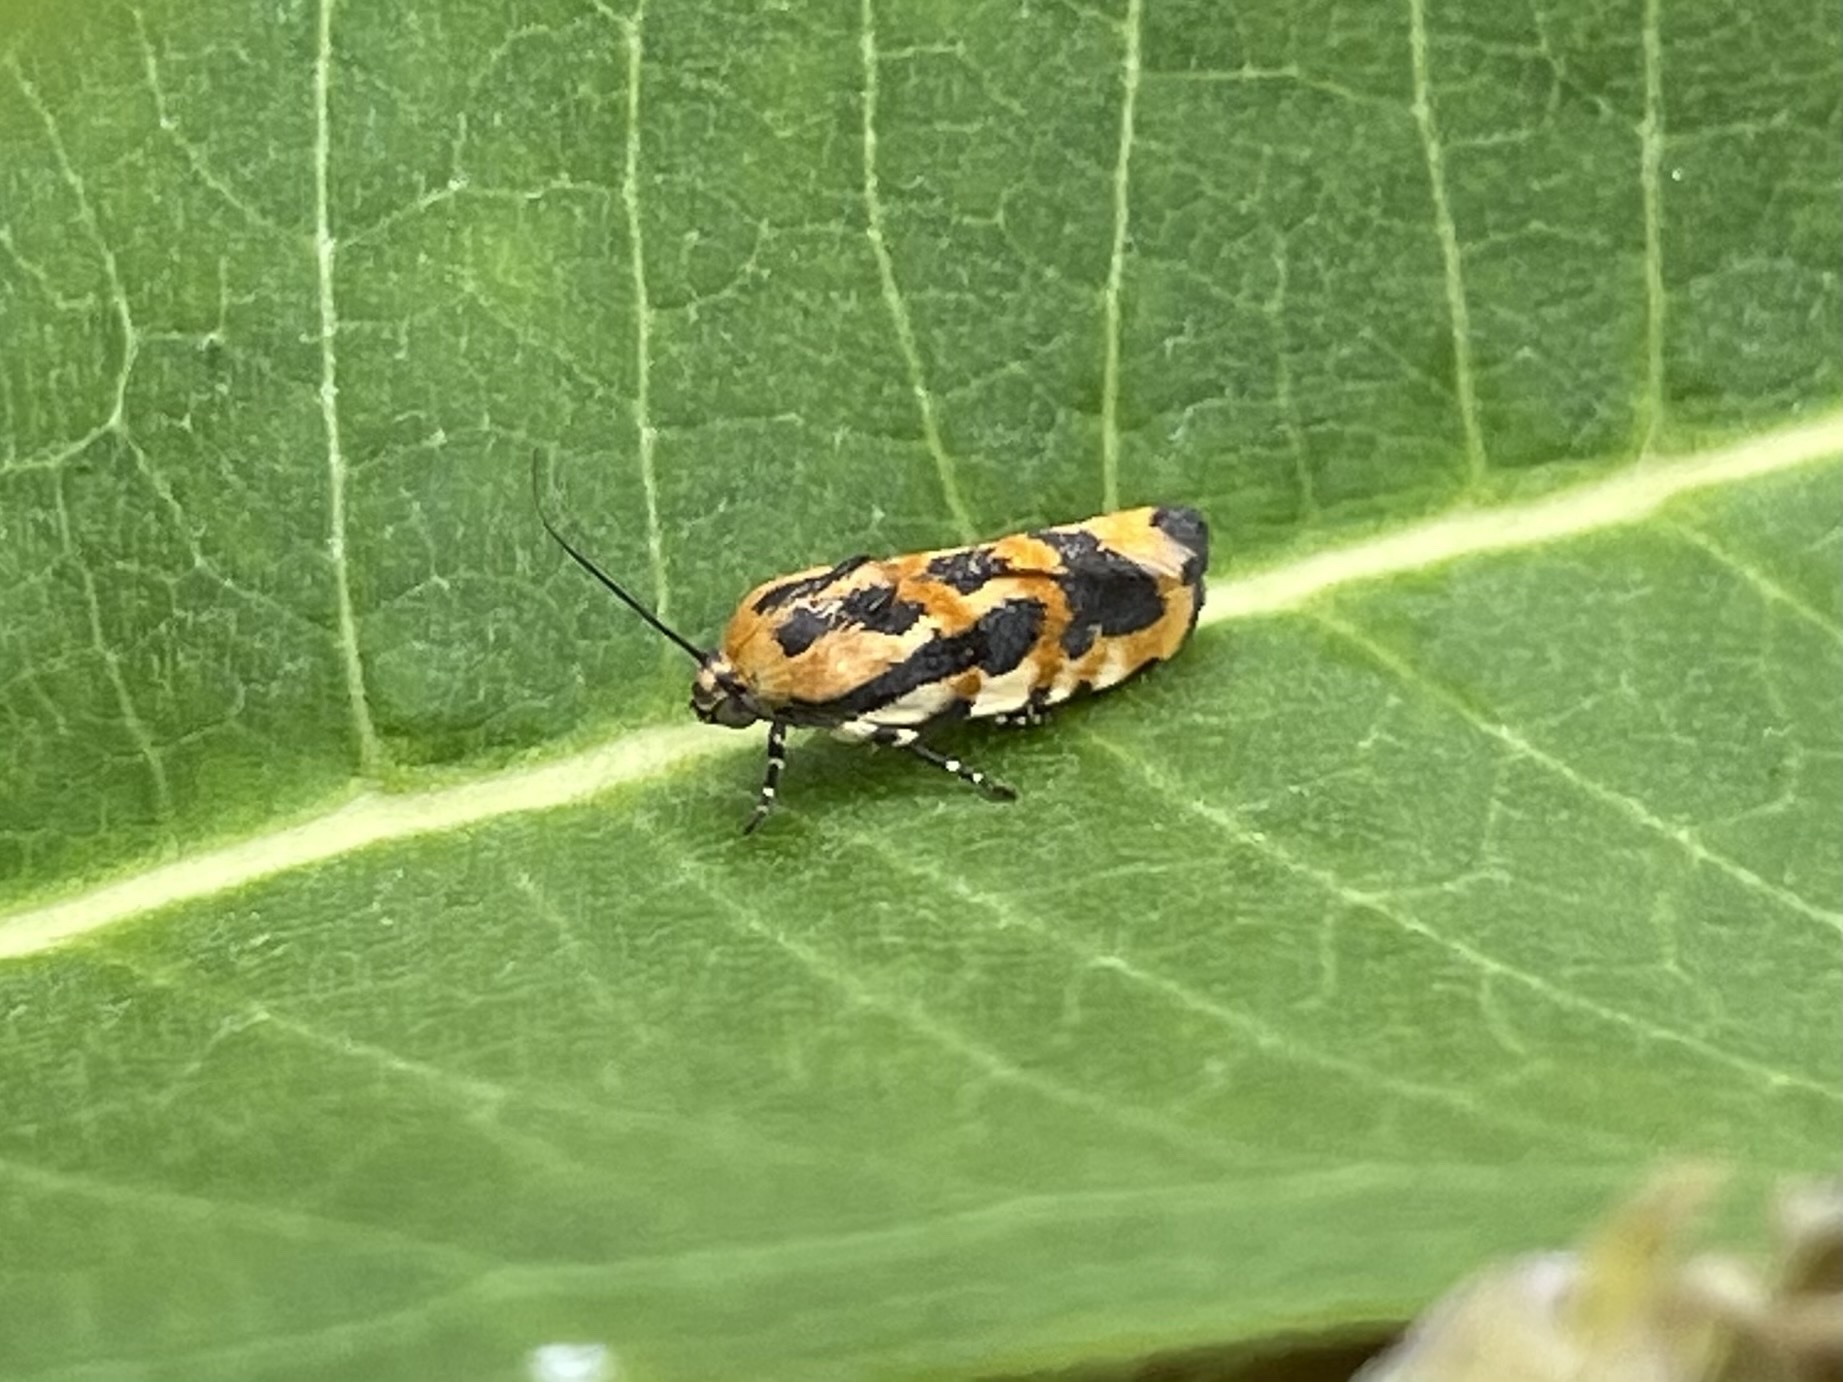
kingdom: Animalia
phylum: Arthropoda
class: Insecta
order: Lepidoptera
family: Noctuidae
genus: Acontia
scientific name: Acontia leo
